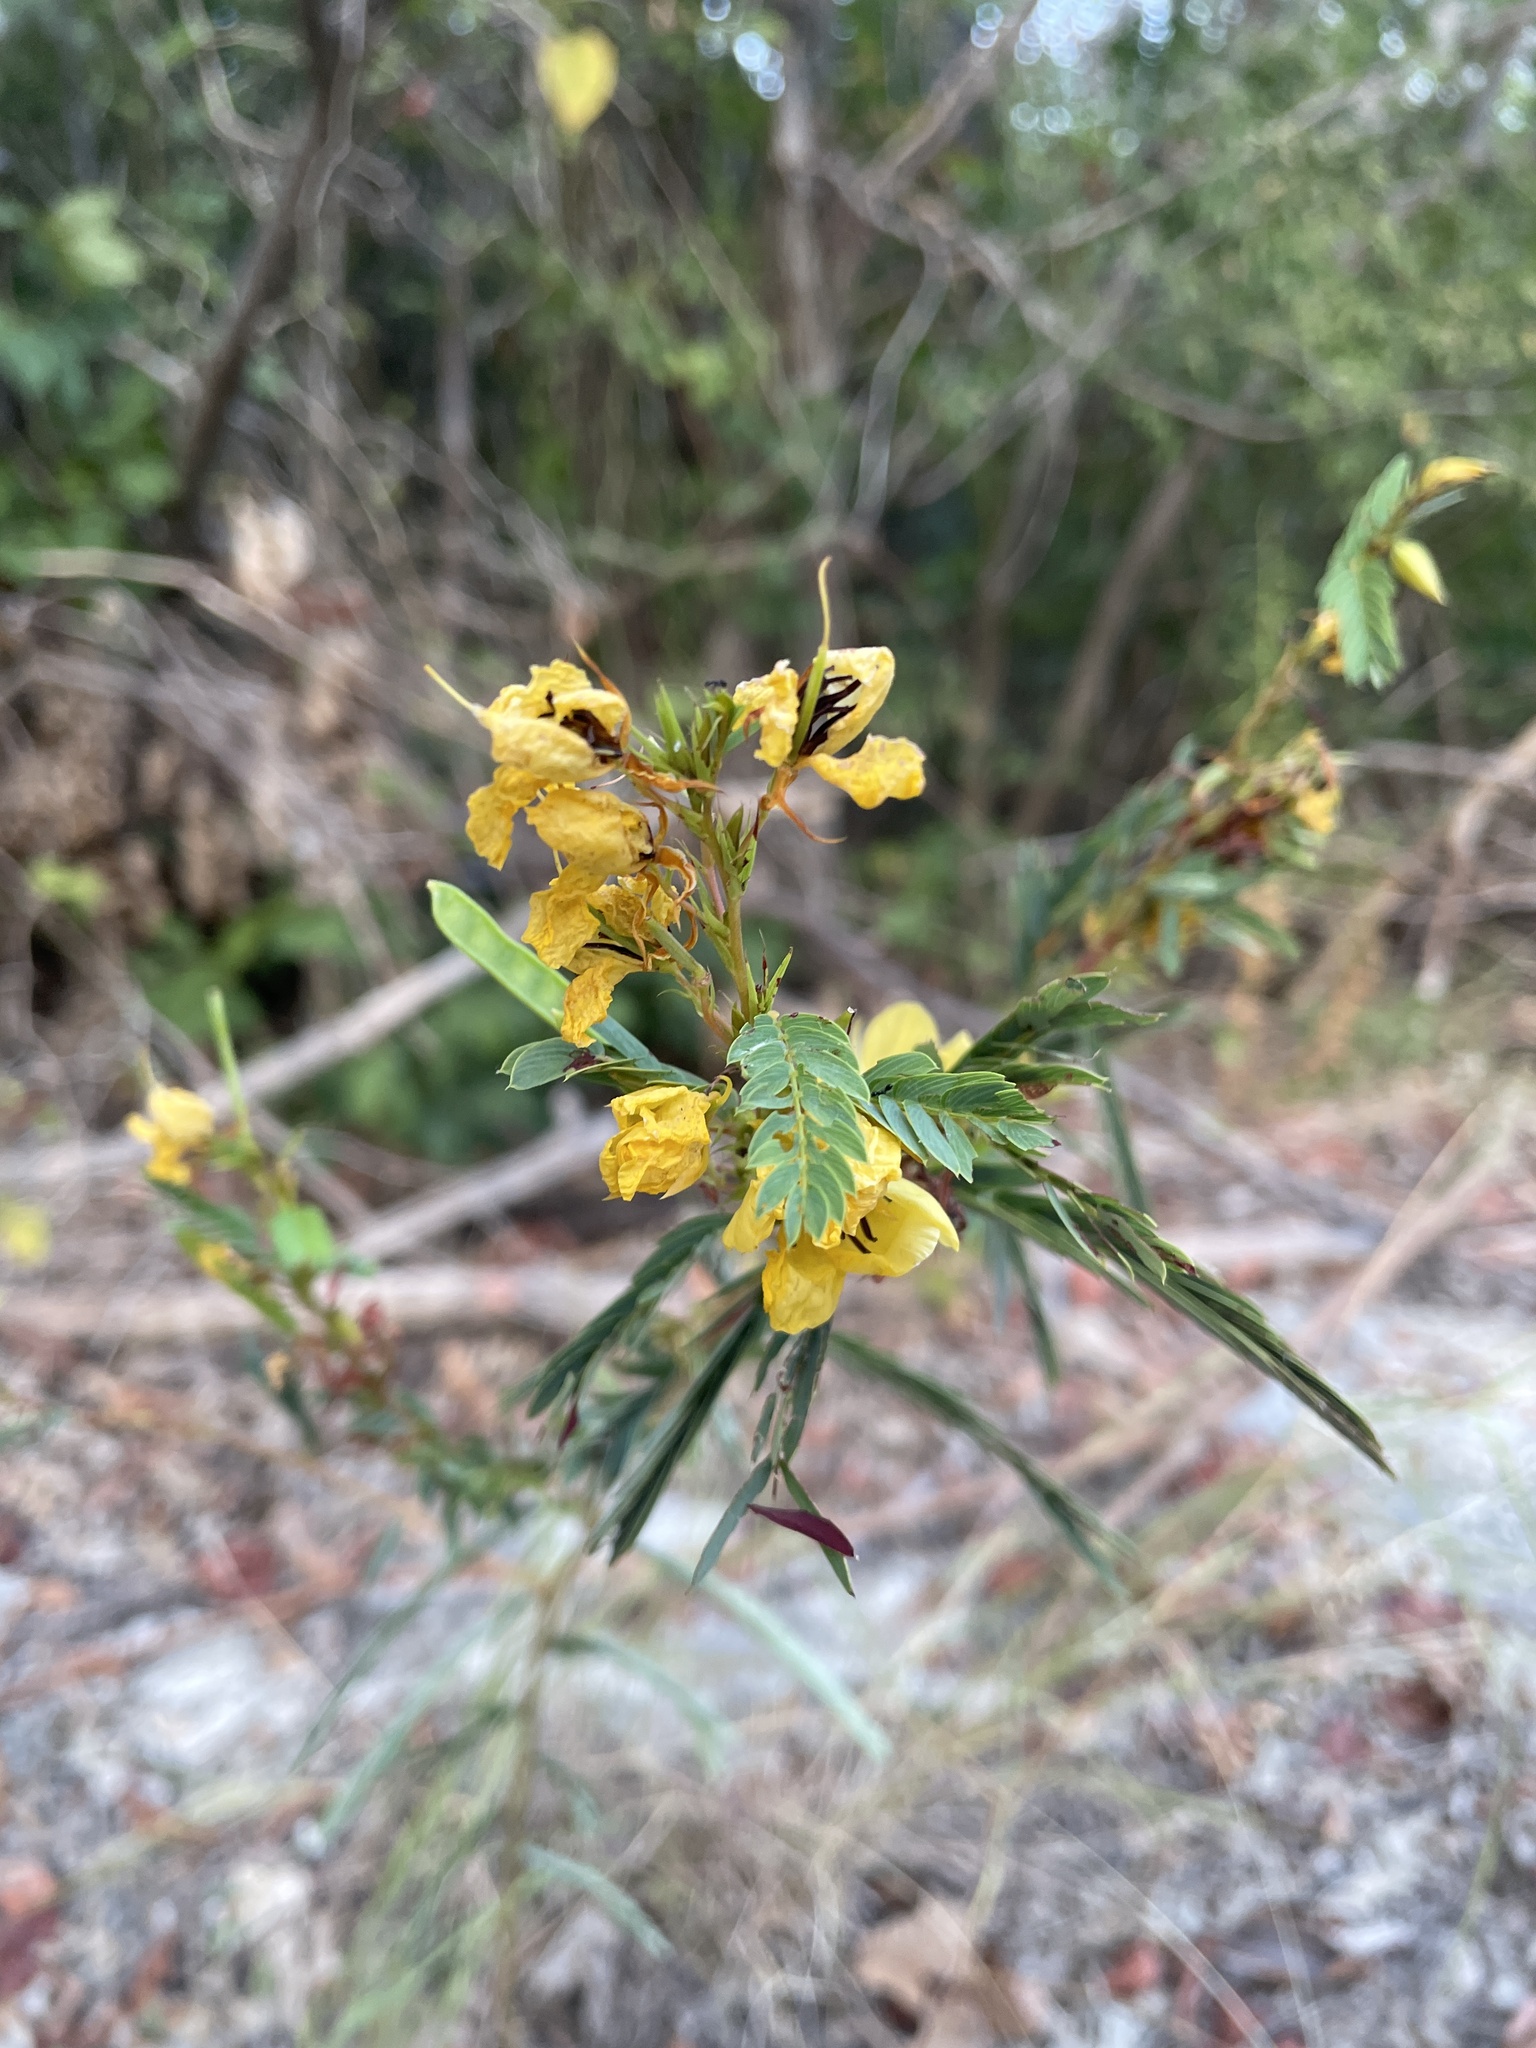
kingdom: Plantae
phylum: Tracheophyta
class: Magnoliopsida
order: Fabales
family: Fabaceae
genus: Chamaecrista
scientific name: Chamaecrista fasciculata
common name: Golden cassia
